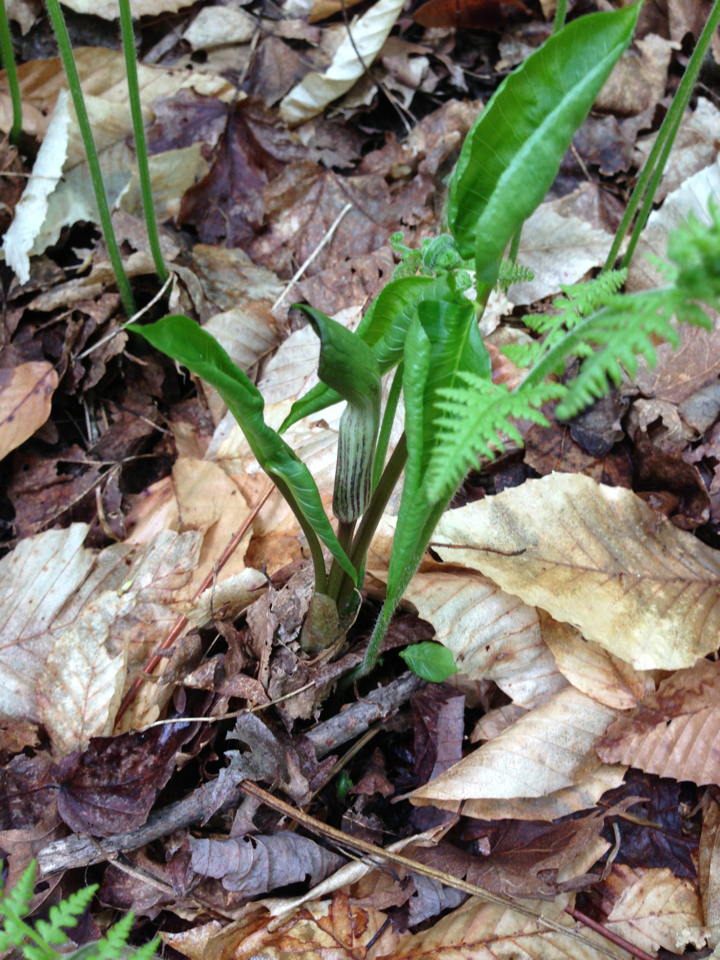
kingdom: Plantae
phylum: Tracheophyta
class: Liliopsida
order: Alismatales
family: Araceae
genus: Arisaema
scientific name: Arisaema triphyllum
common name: Jack-in-the-pulpit
